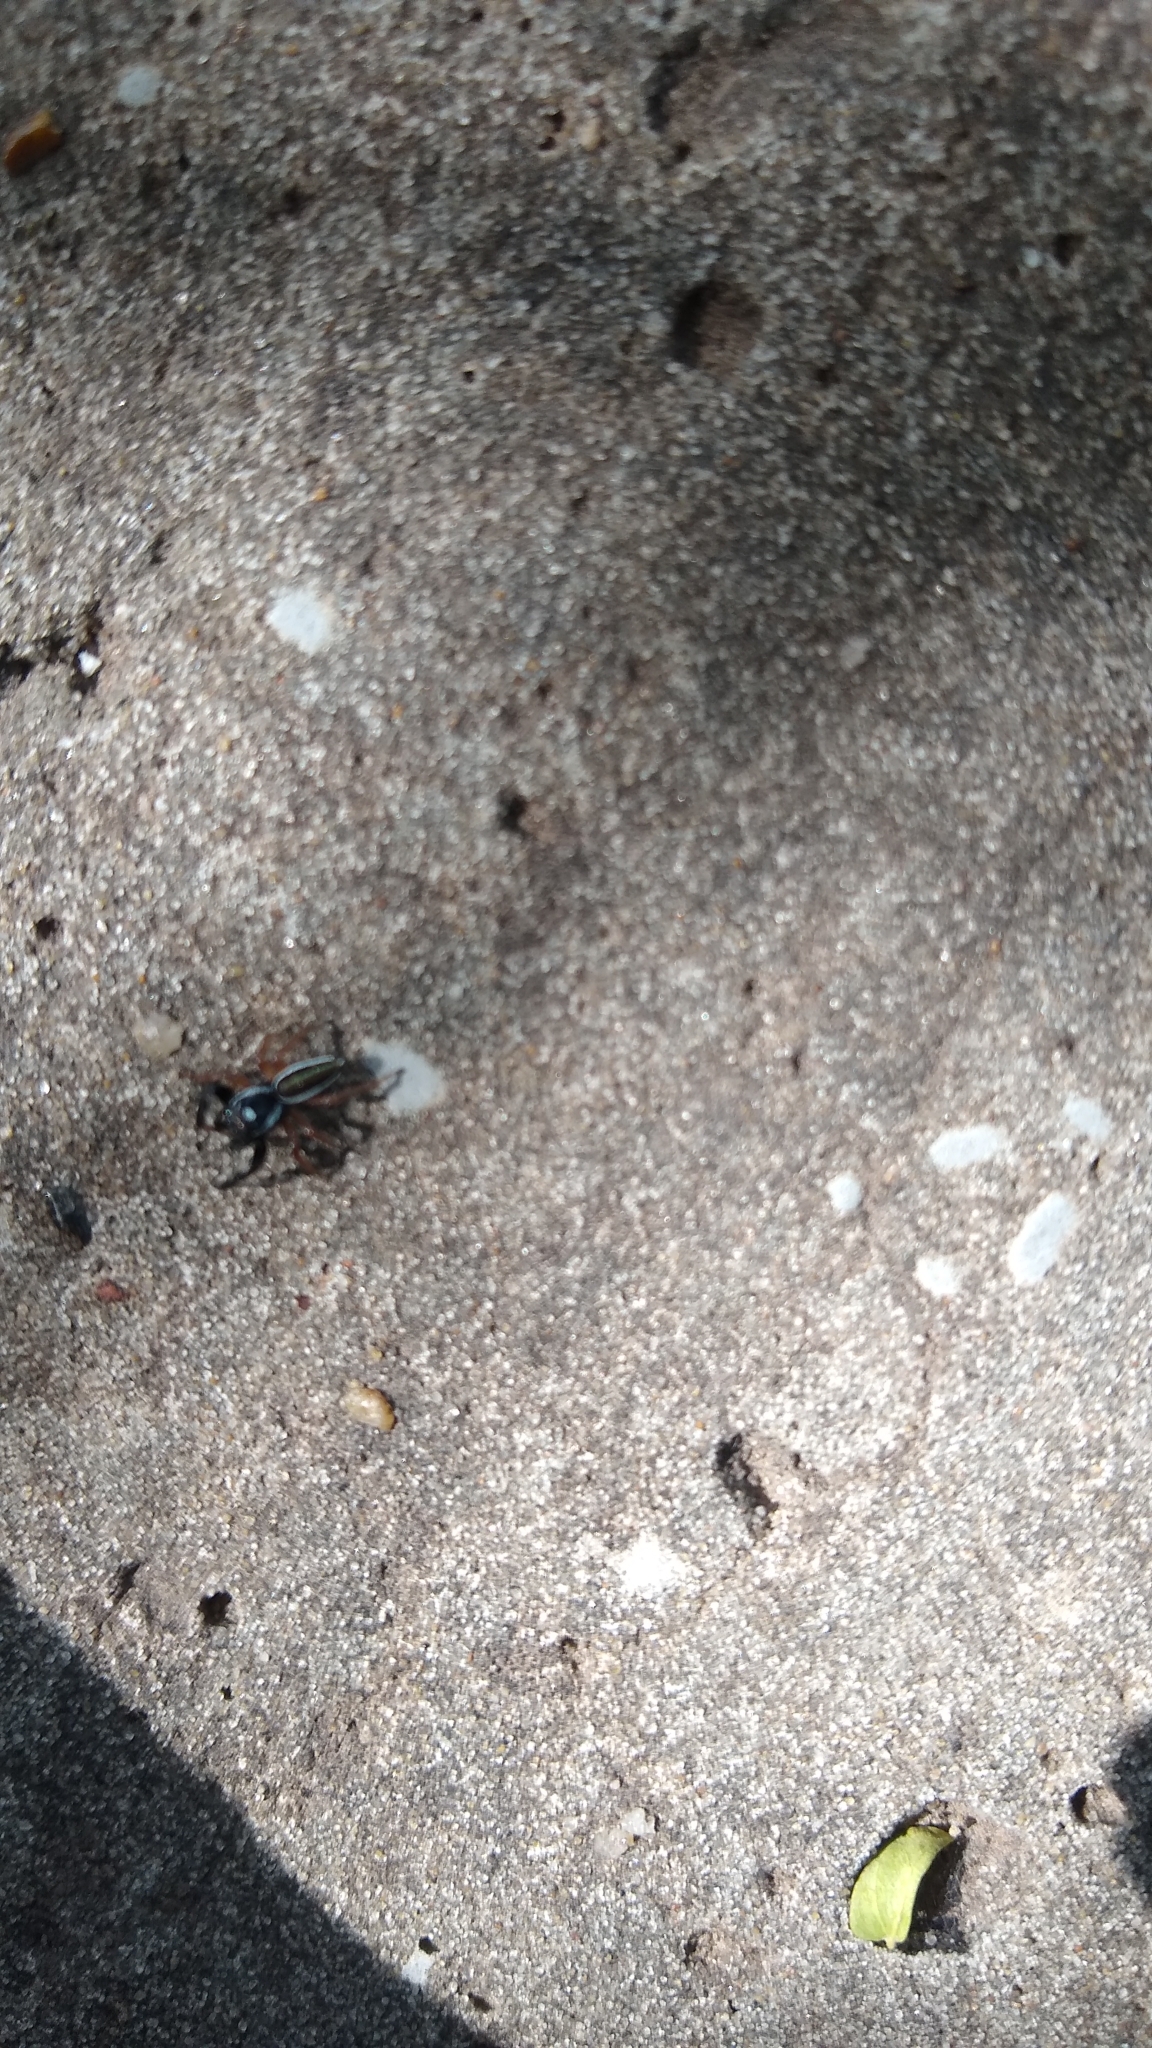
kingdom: Animalia
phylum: Arthropoda
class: Arachnida
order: Araneae
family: Salticidae
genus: Dendryphantes
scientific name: Dendryphantes mordax
